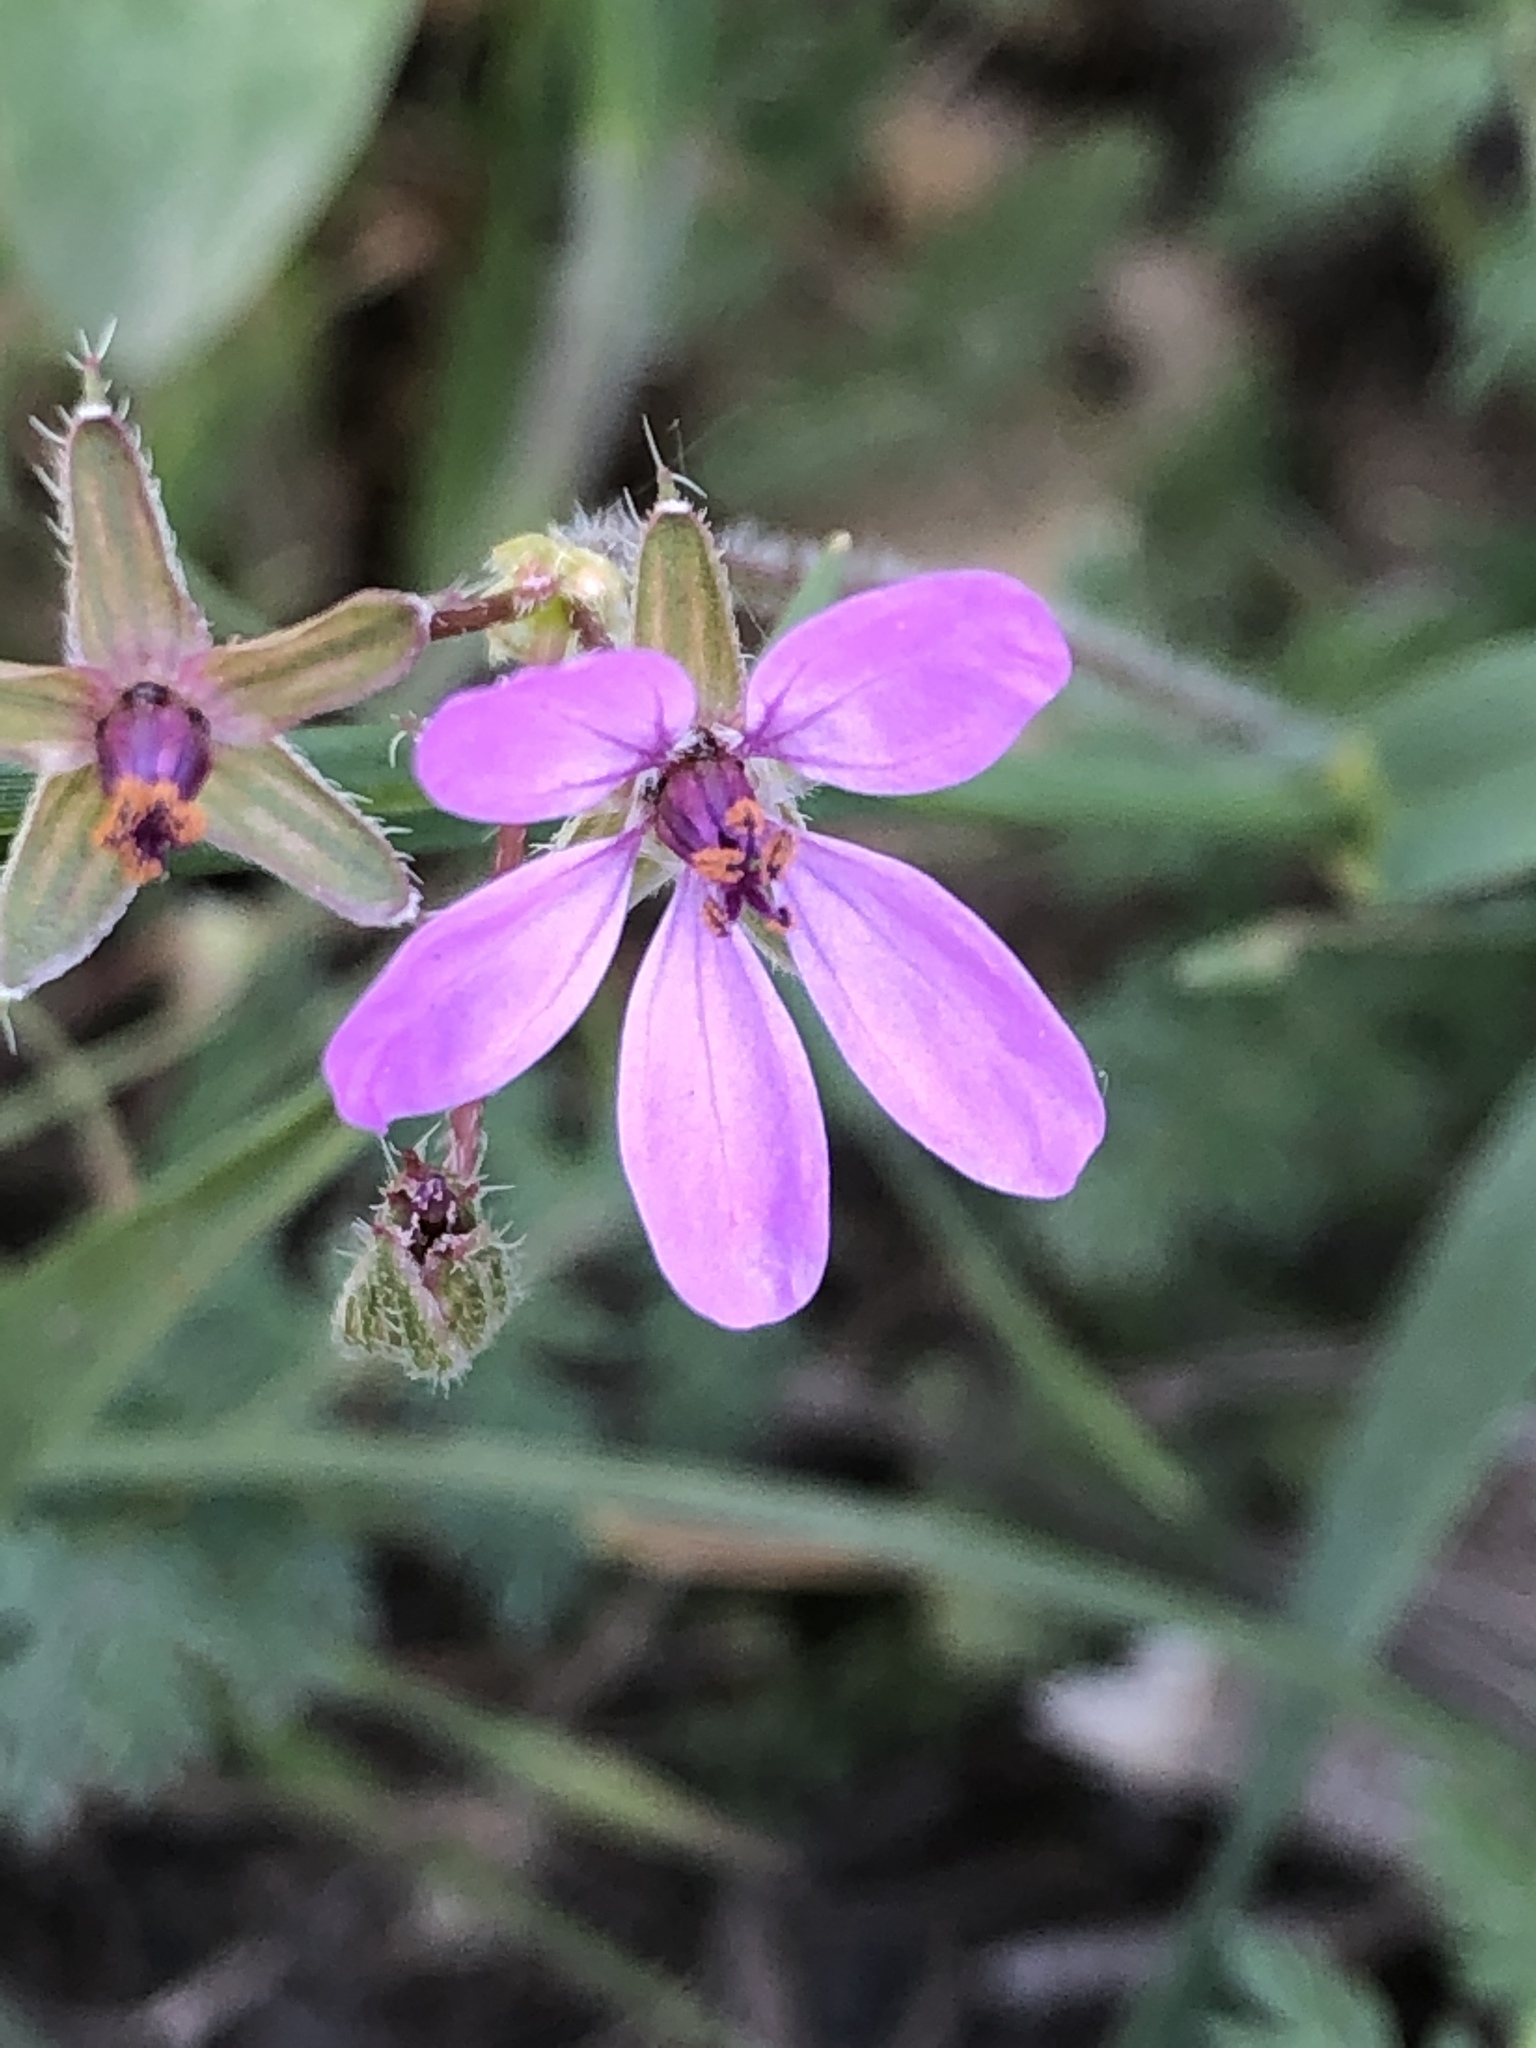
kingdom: Plantae
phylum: Tracheophyta
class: Magnoliopsida
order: Geraniales
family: Geraniaceae
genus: Erodium
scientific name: Erodium cicutarium
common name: Common stork's-bill
